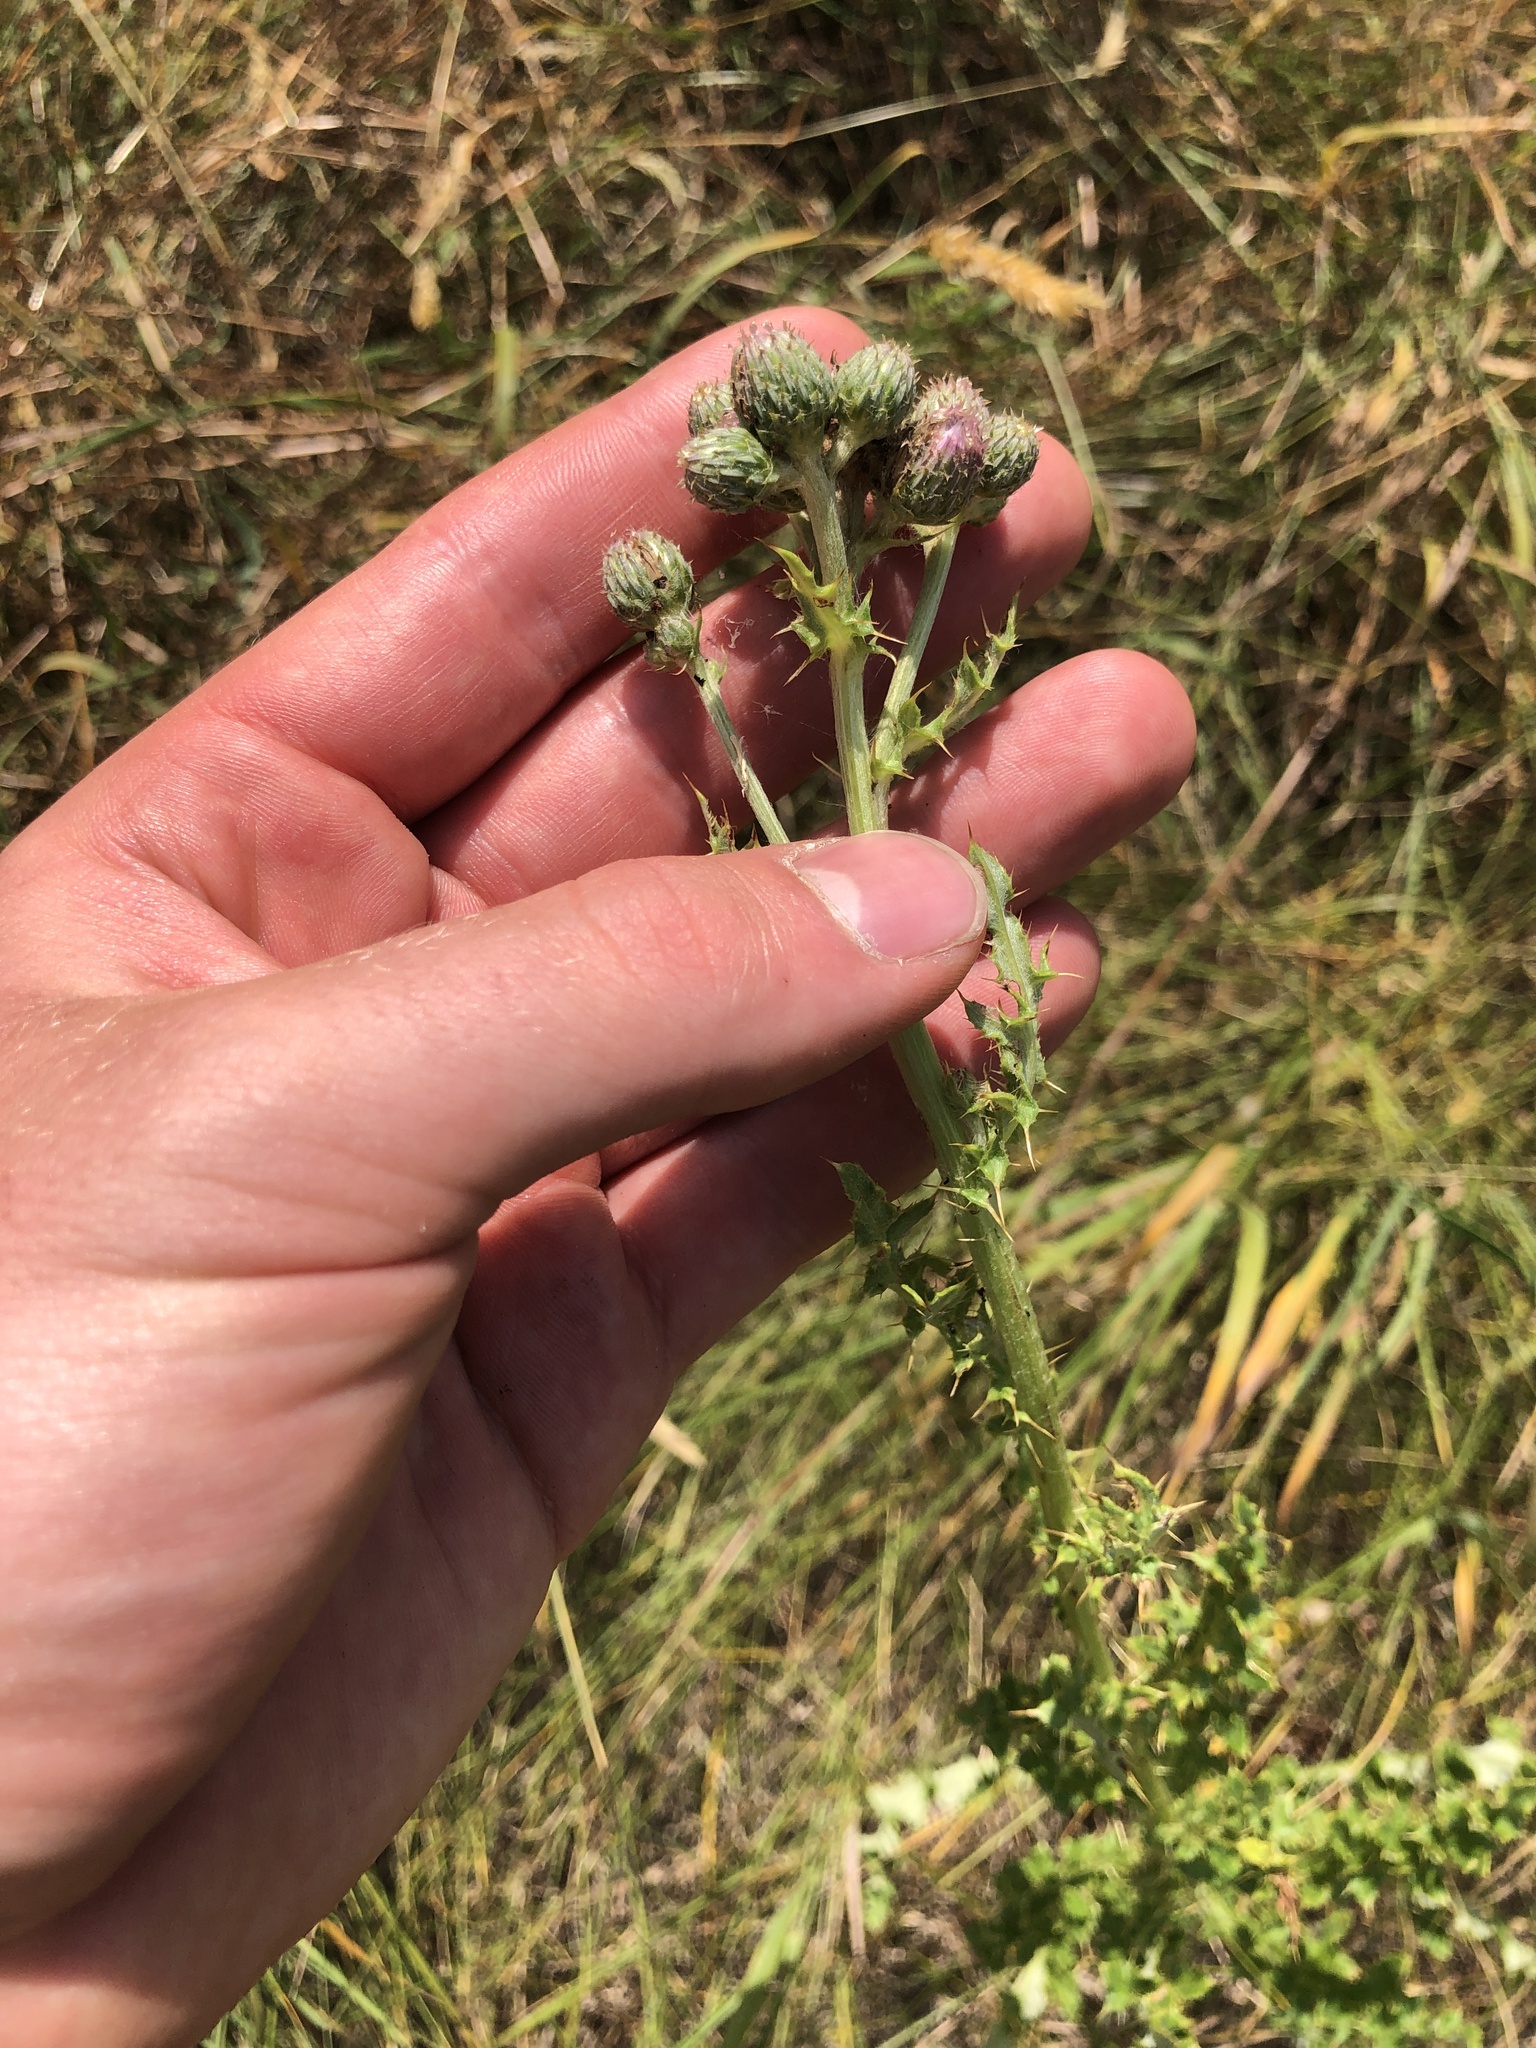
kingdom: Plantae
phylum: Tracheophyta
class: Magnoliopsida
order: Asterales
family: Asteraceae
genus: Cirsium
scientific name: Cirsium arvense
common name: Creeping thistle
